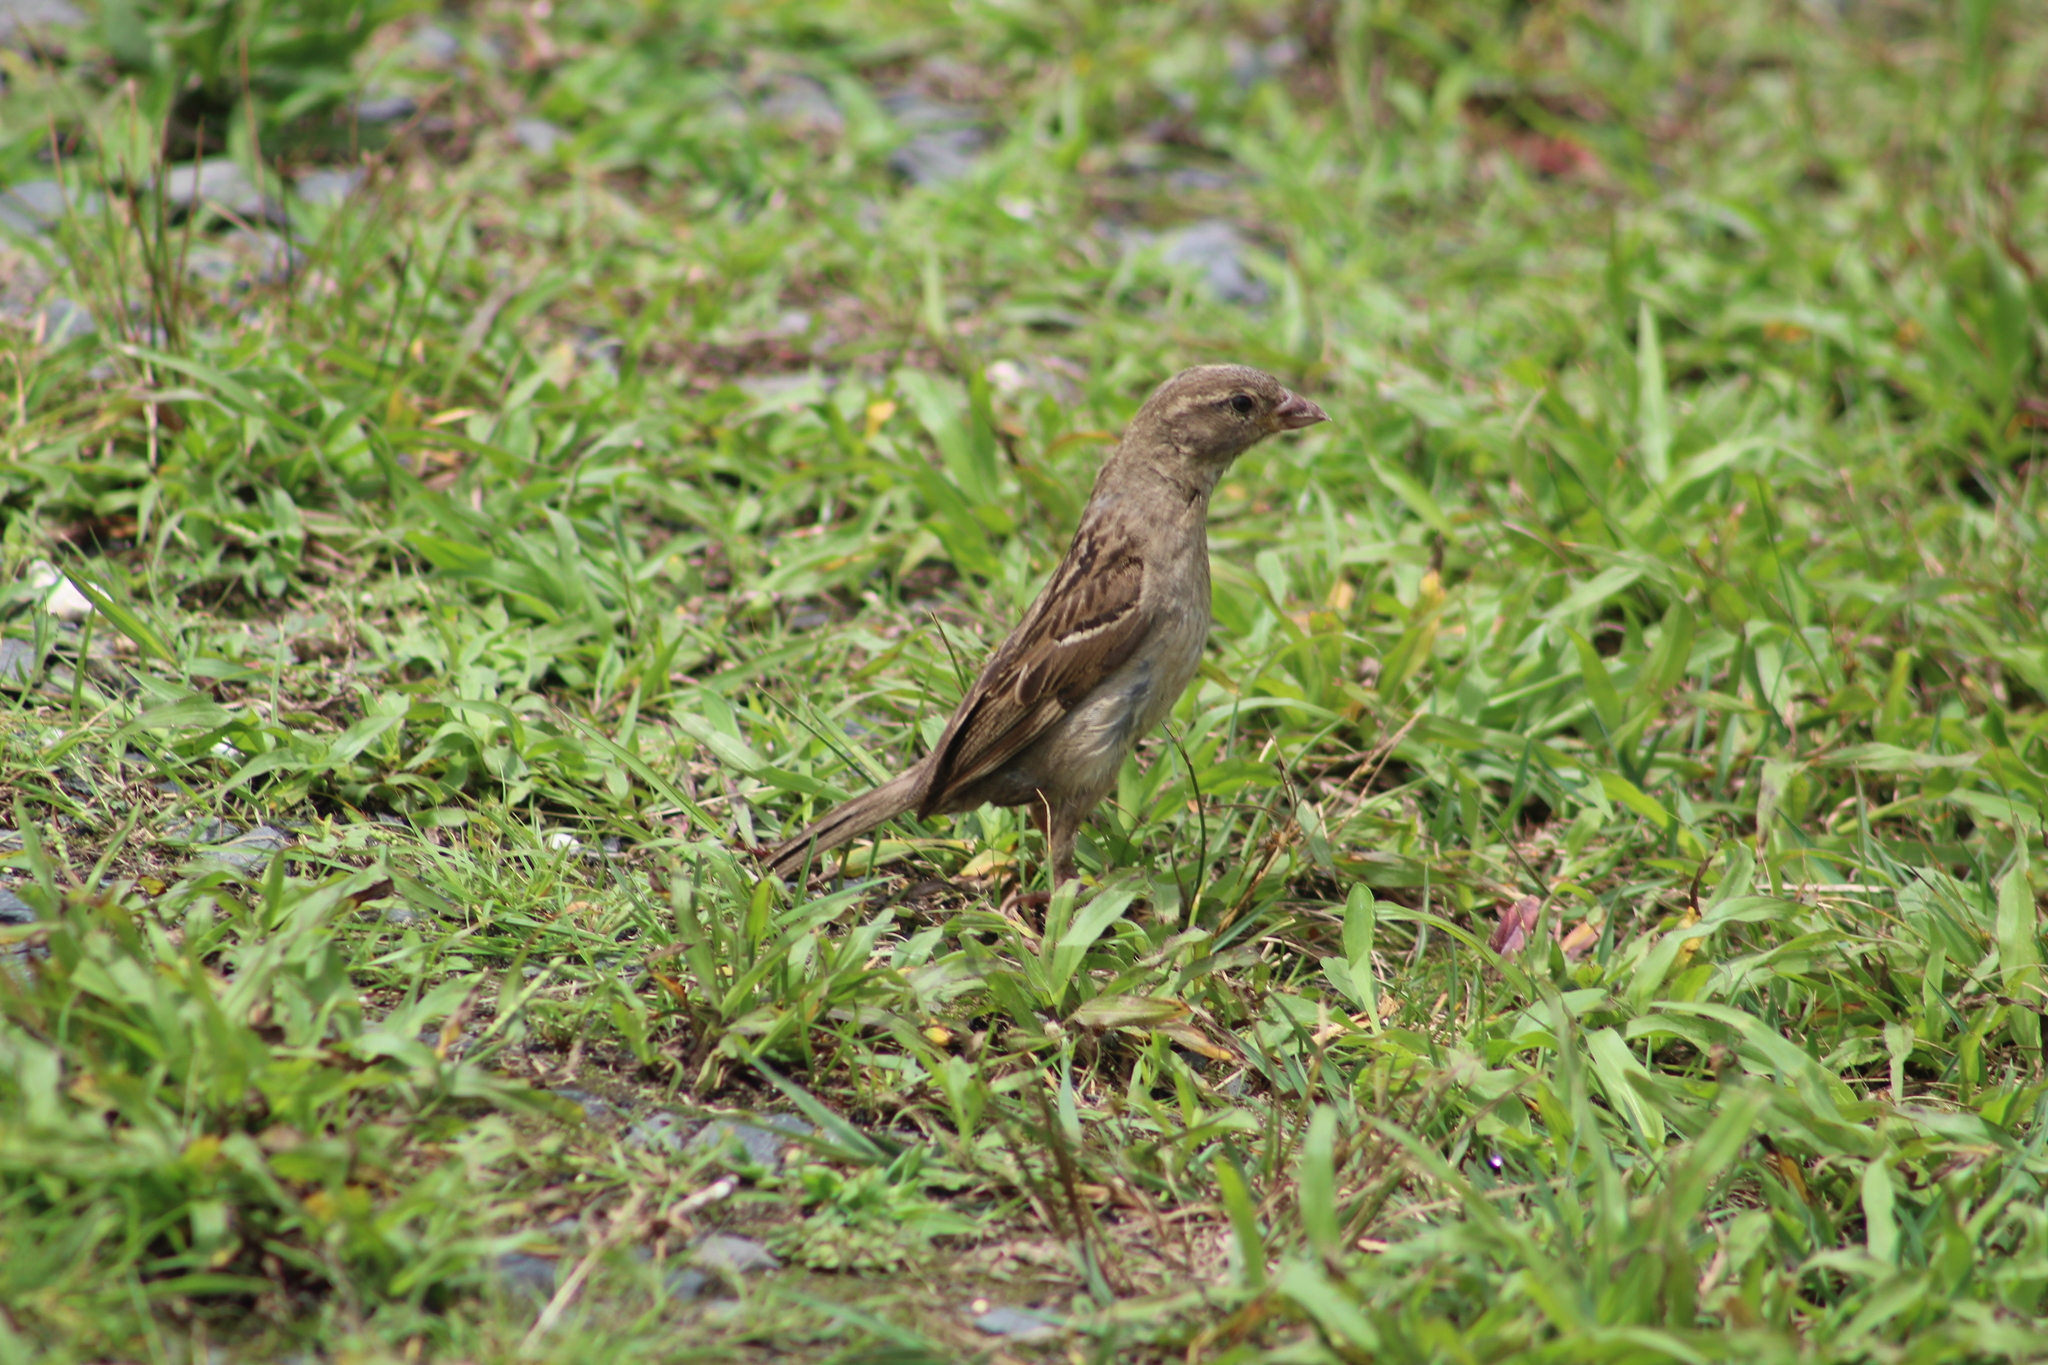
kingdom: Animalia
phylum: Chordata
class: Aves
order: Passeriformes
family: Passeridae
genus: Passer
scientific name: Passer domesticus
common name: House sparrow
